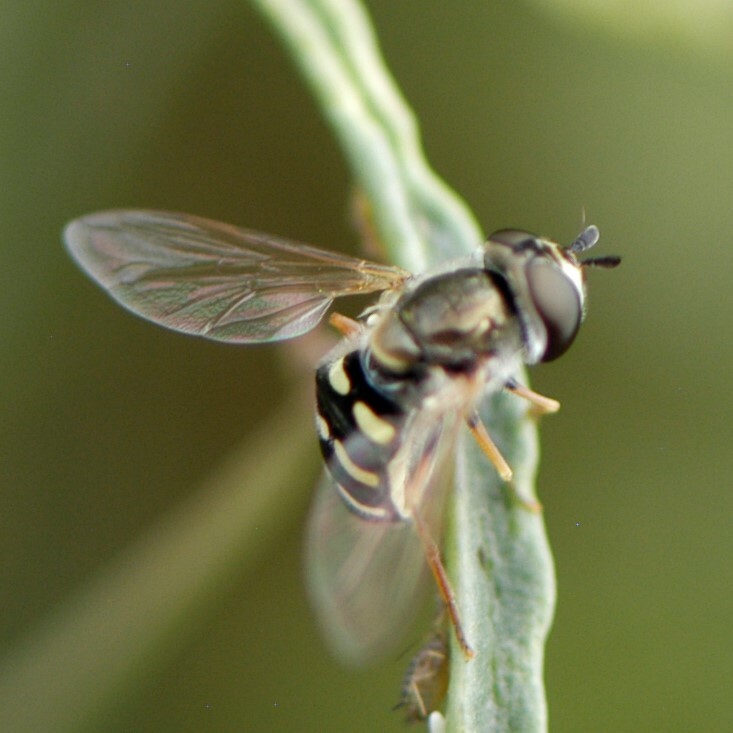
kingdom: Animalia
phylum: Arthropoda
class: Insecta
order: Diptera
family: Syrphidae
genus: Eupeodes
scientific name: Eupeodes volucris
